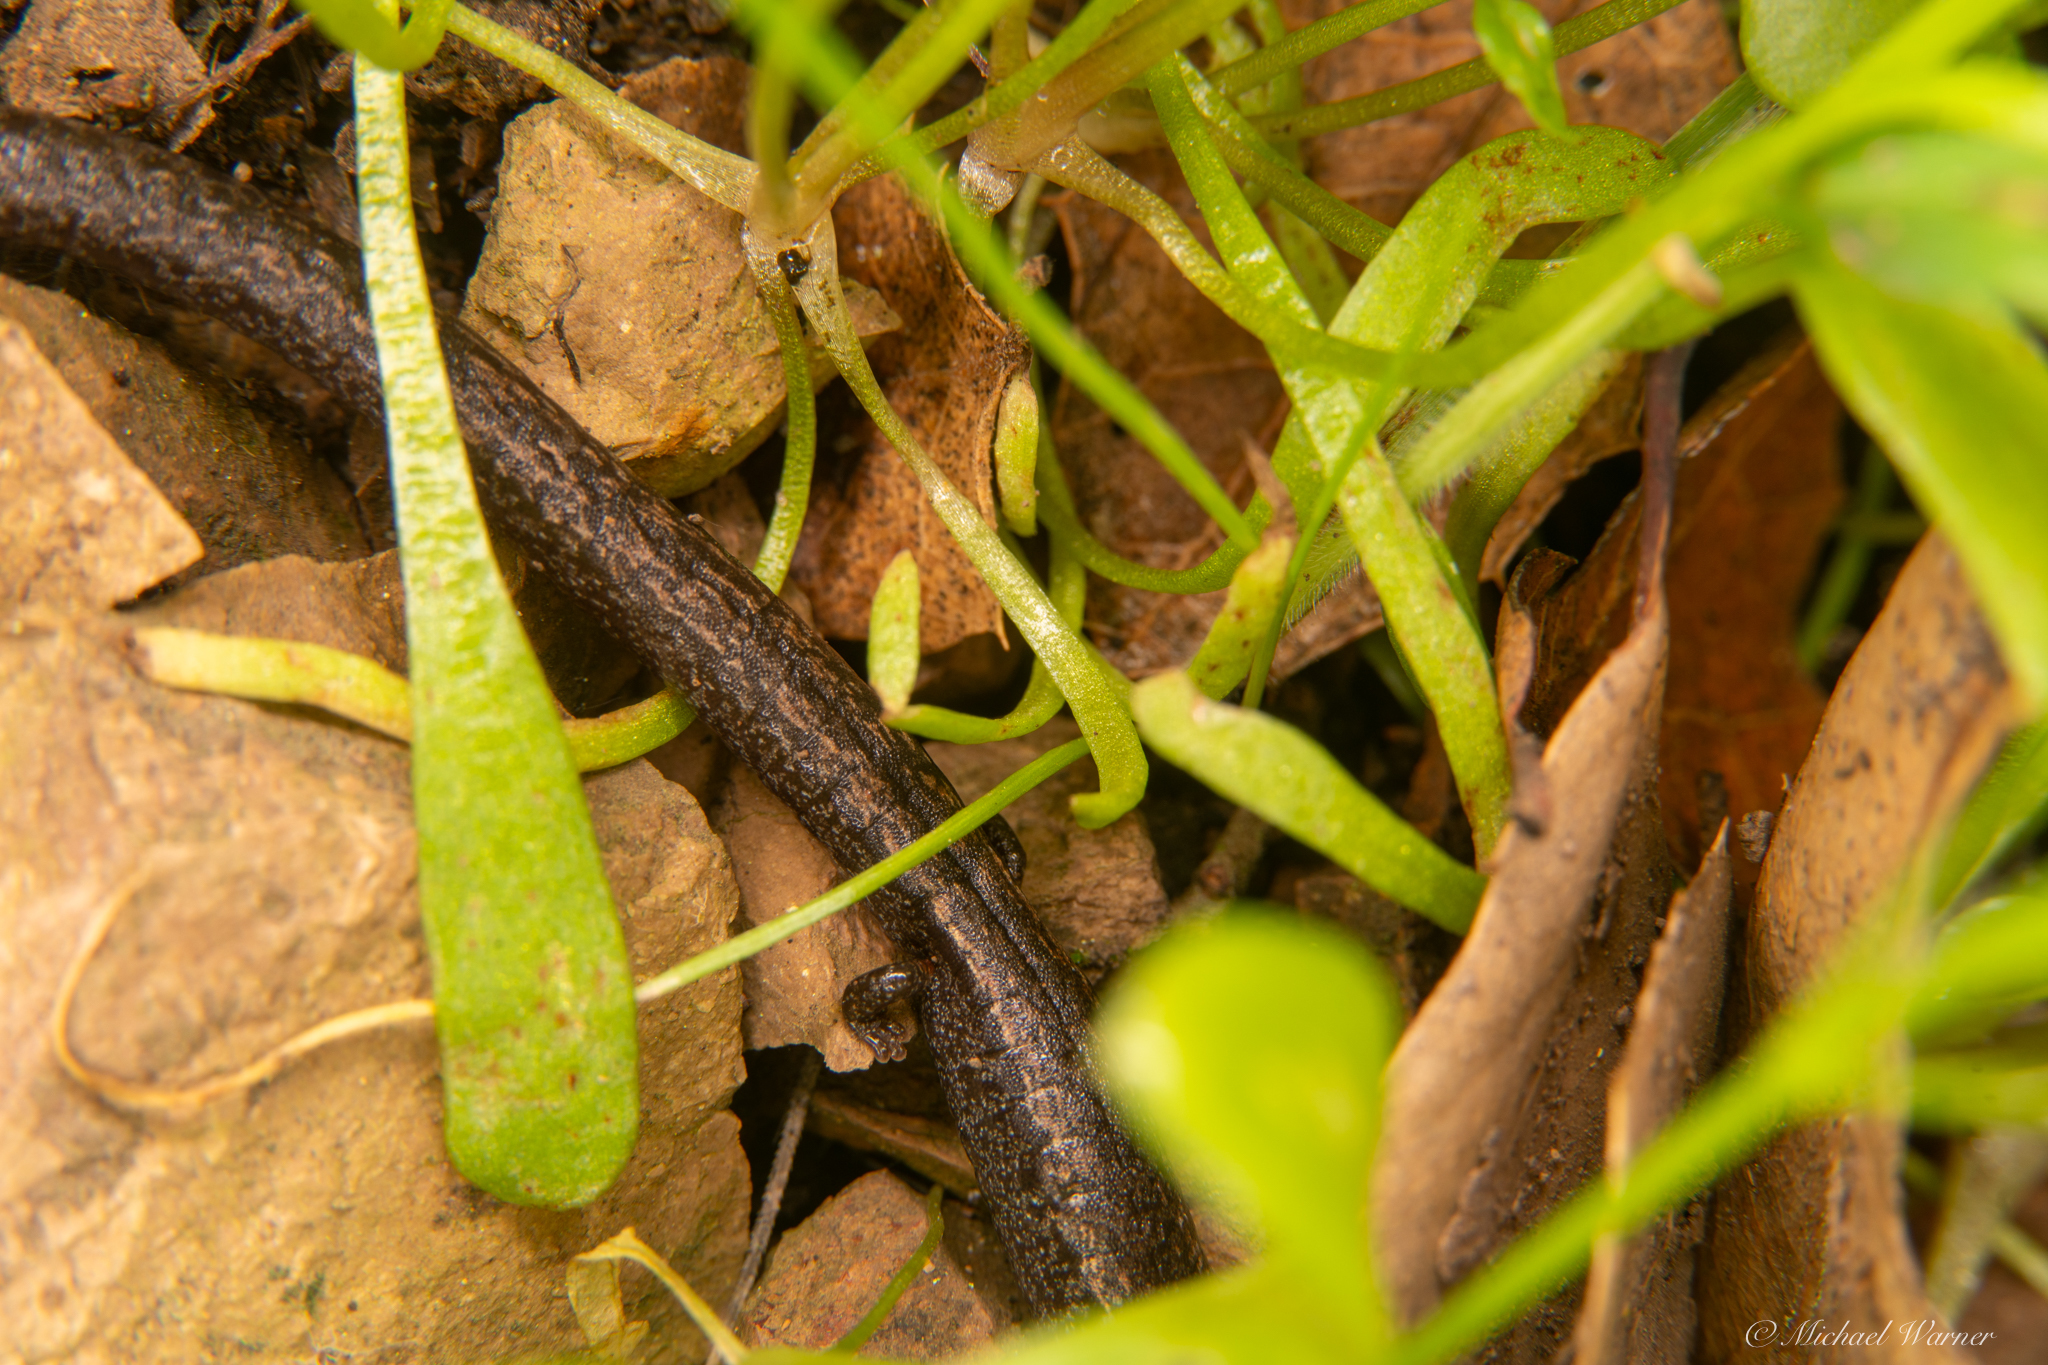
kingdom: Animalia
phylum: Chordata
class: Amphibia
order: Caudata
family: Plethodontidae
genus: Batrachoseps
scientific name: Batrachoseps attenuatus
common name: California slender salamander
